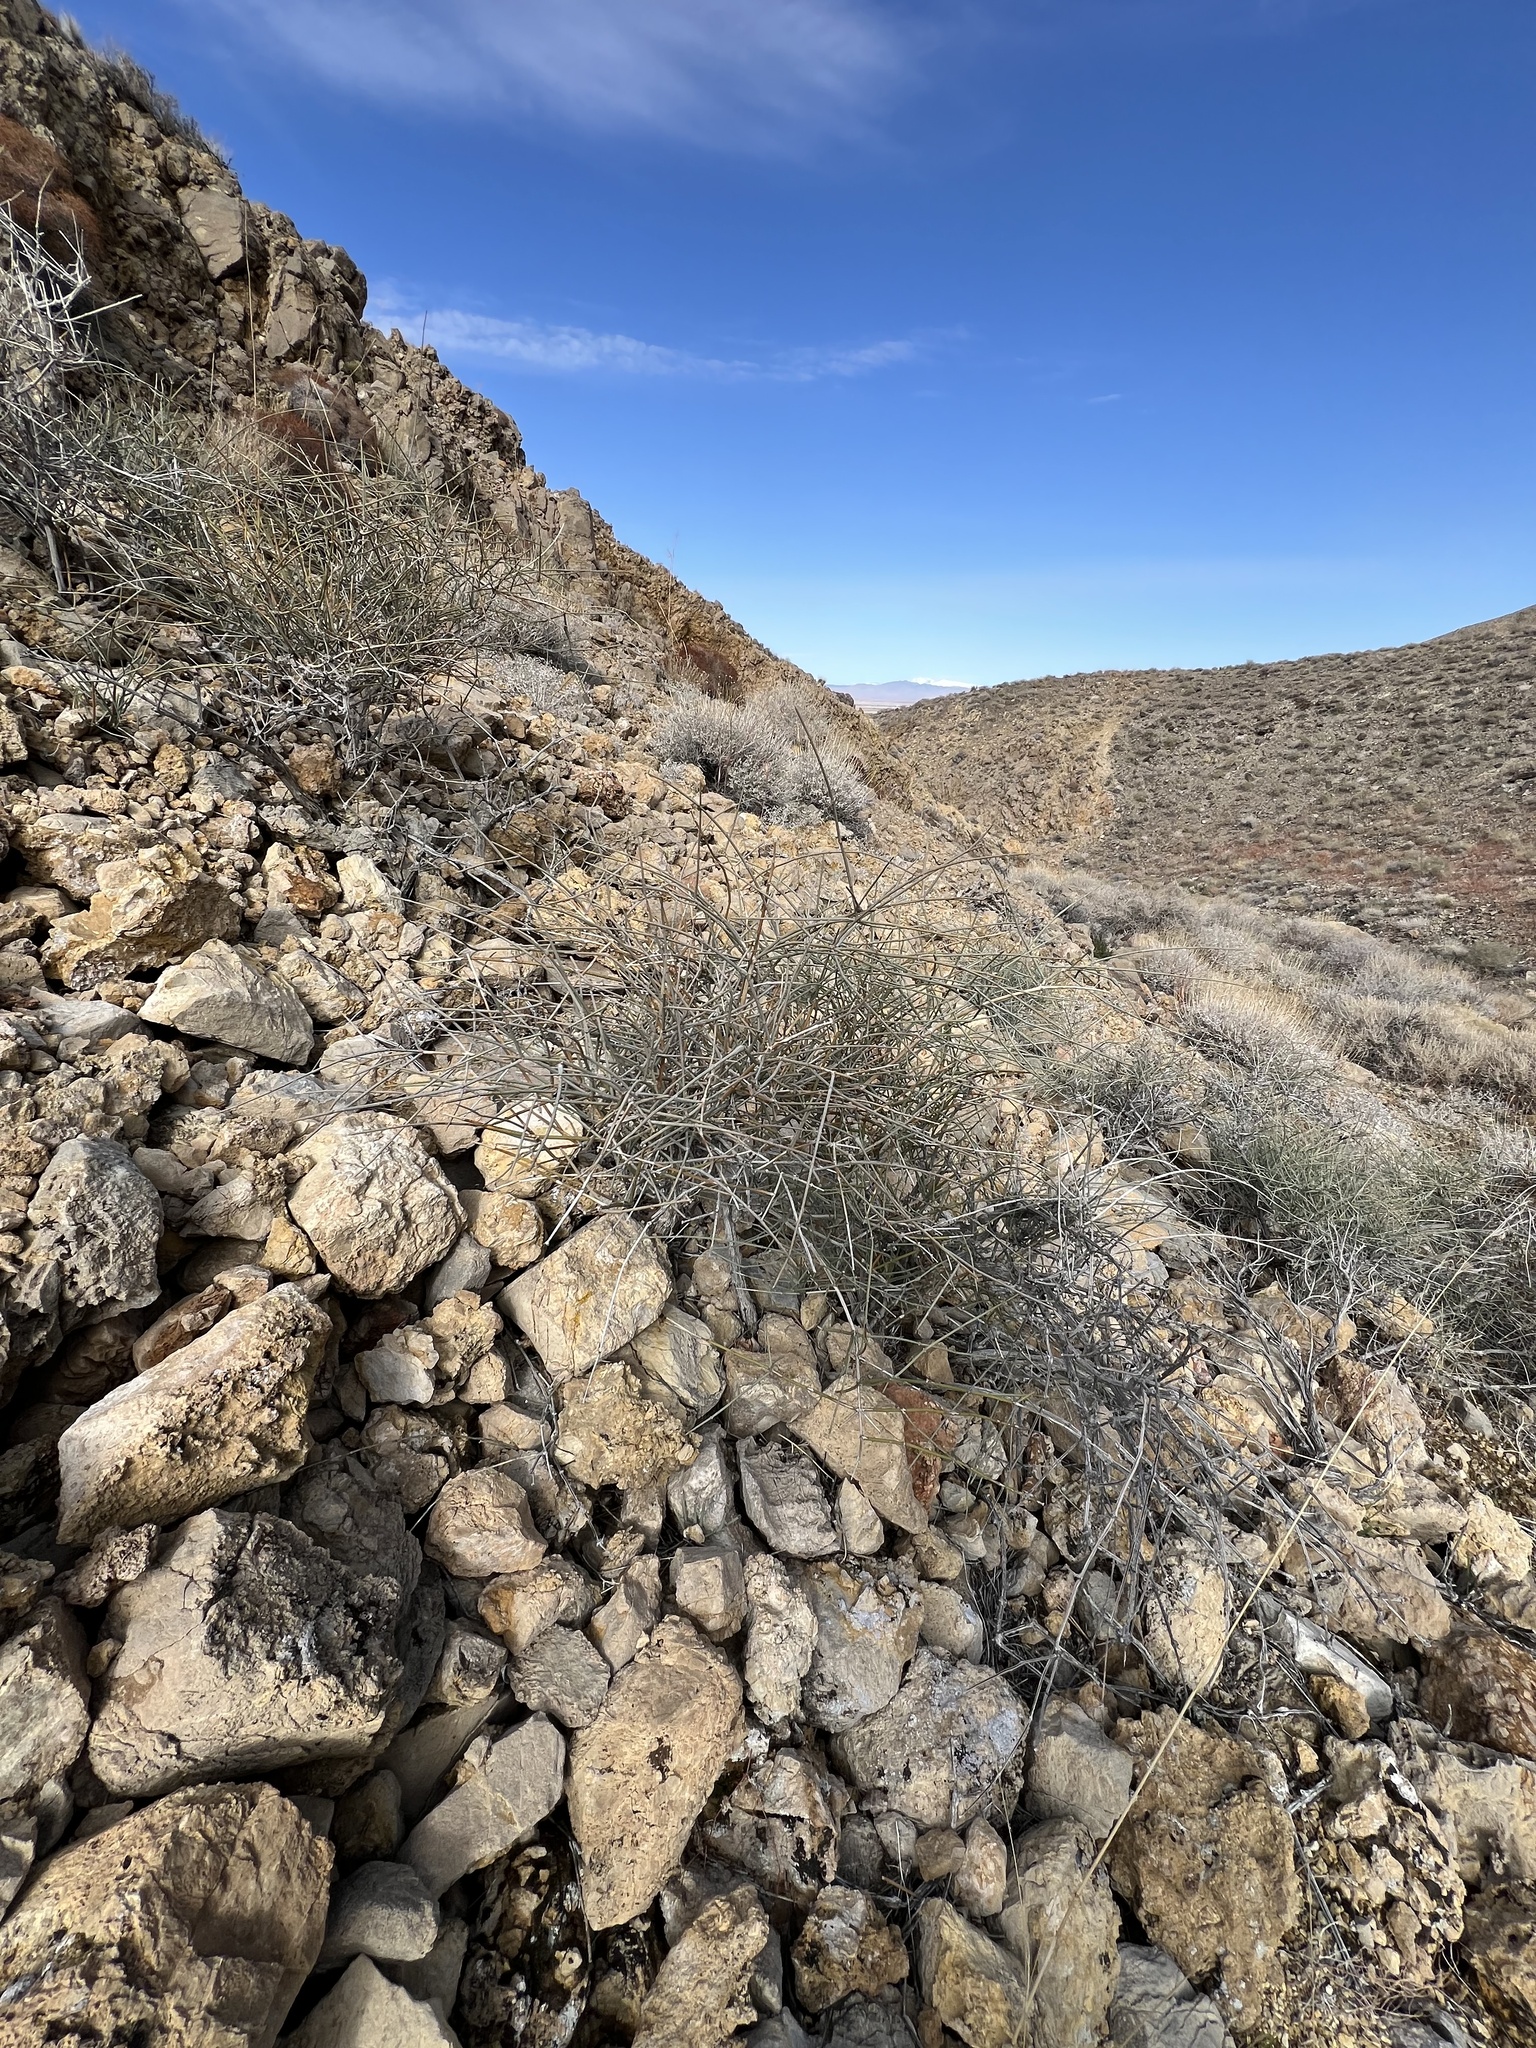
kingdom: Plantae
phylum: Tracheophyta
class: Gnetopsida
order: Ephedrales
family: Ephedraceae
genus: Ephedra
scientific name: Ephedra nevadensis
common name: Gray ephedra
